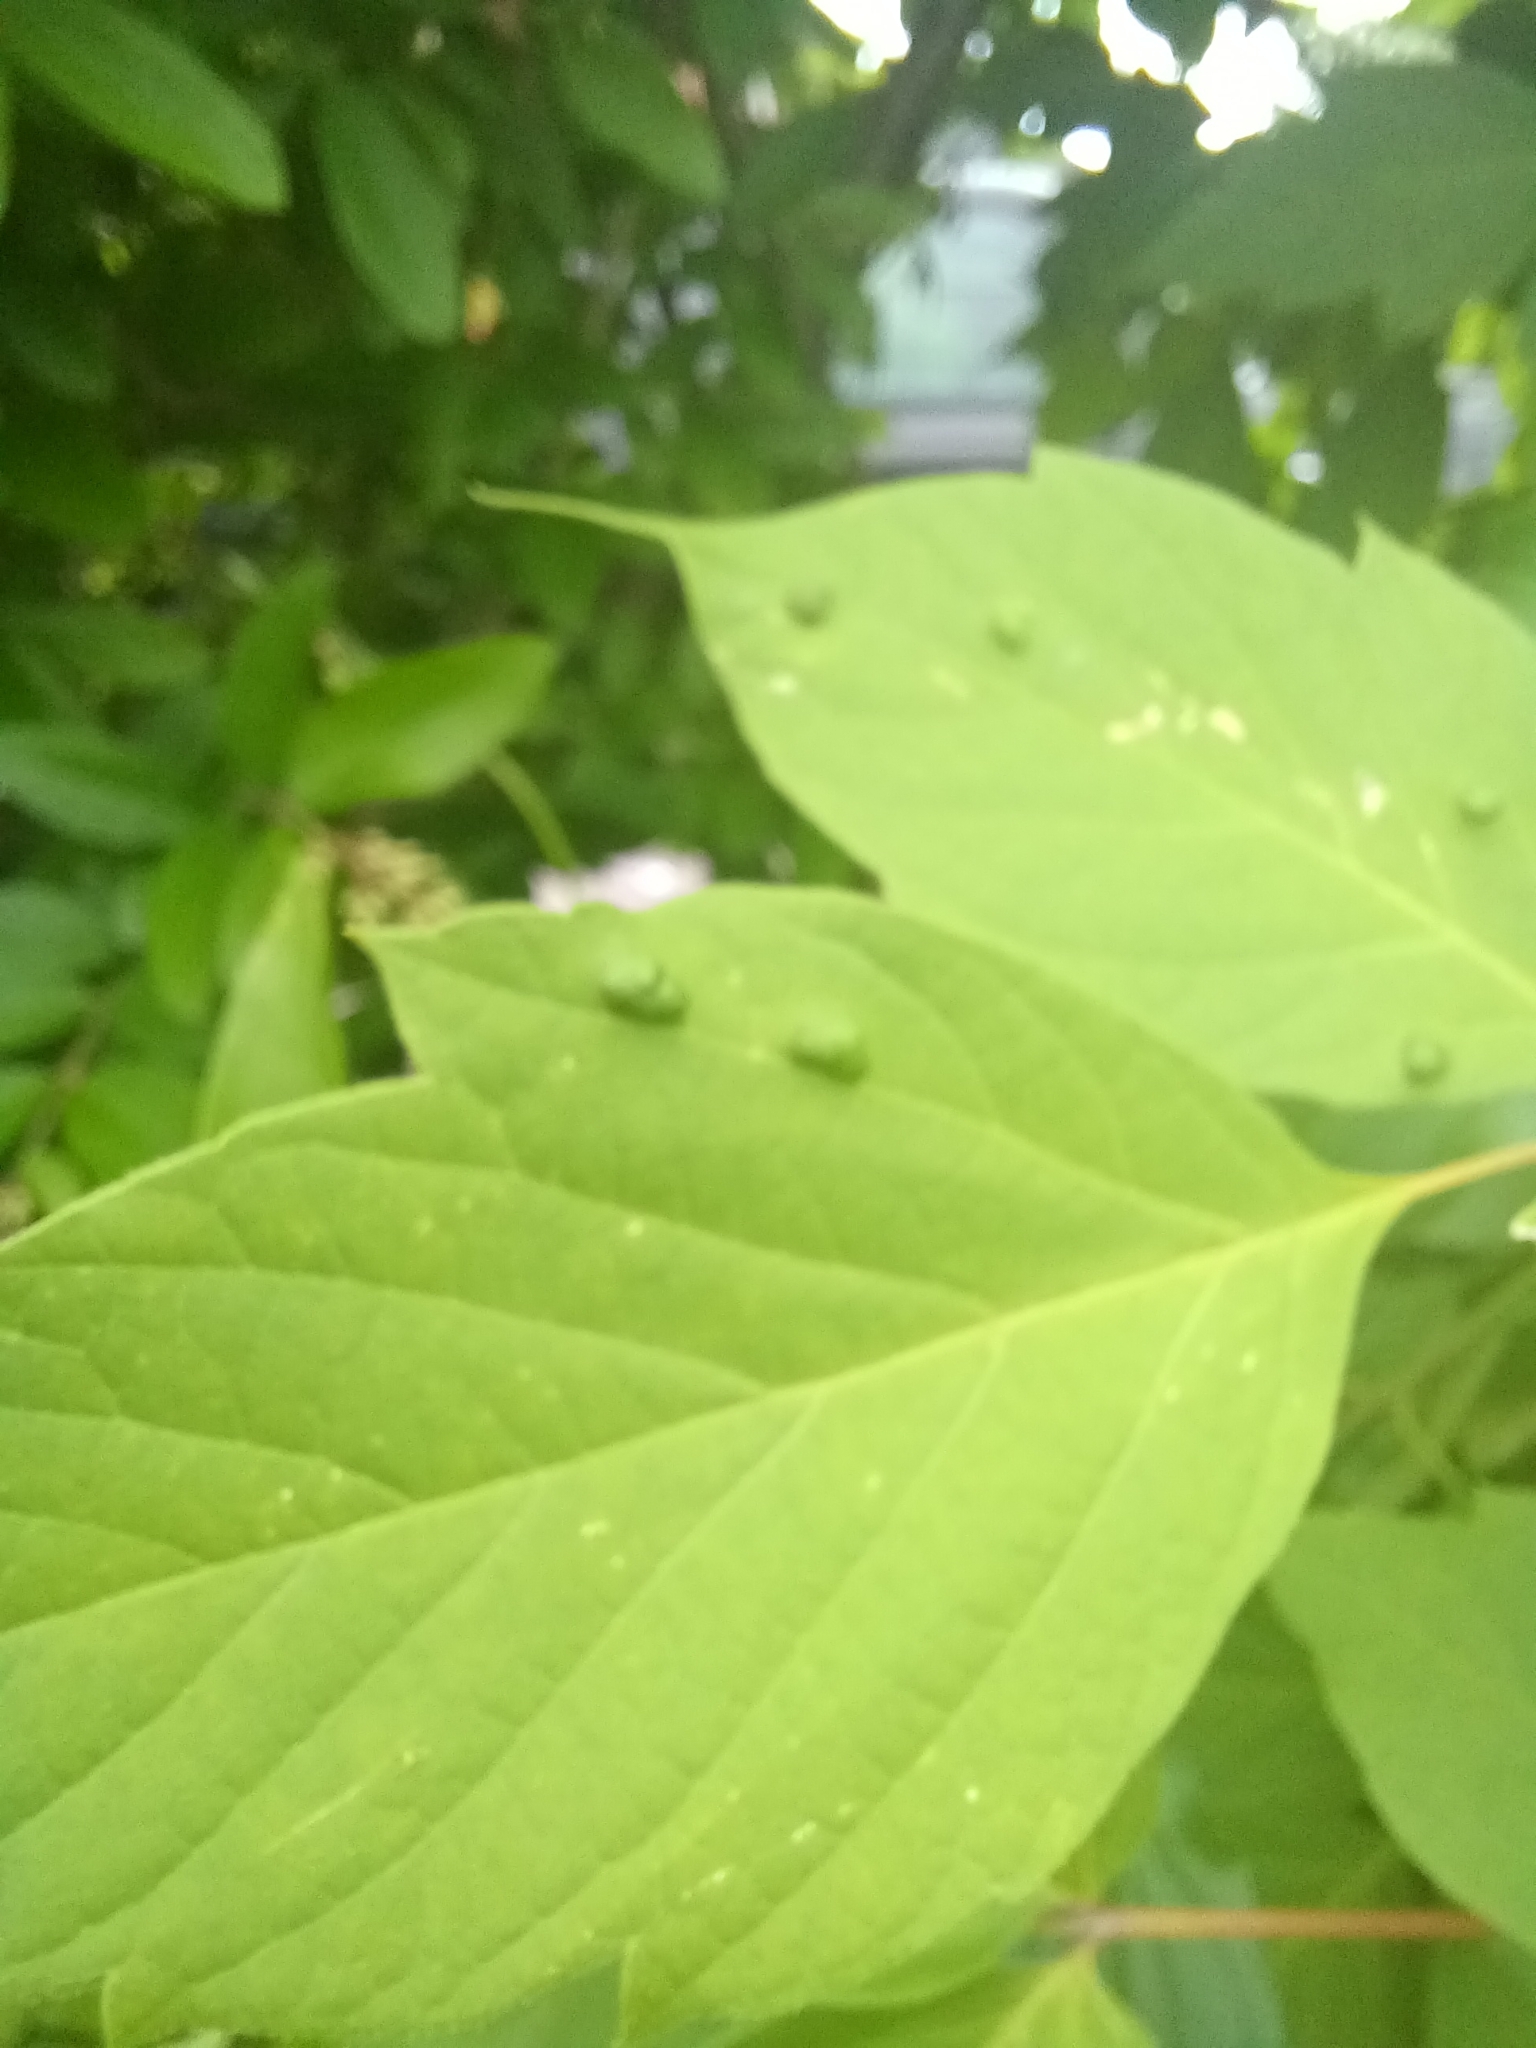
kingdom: Animalia
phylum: Arthropoda
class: Arachnida
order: Trombidiformes
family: Eriophyidae
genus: Aceria
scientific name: Aceria
